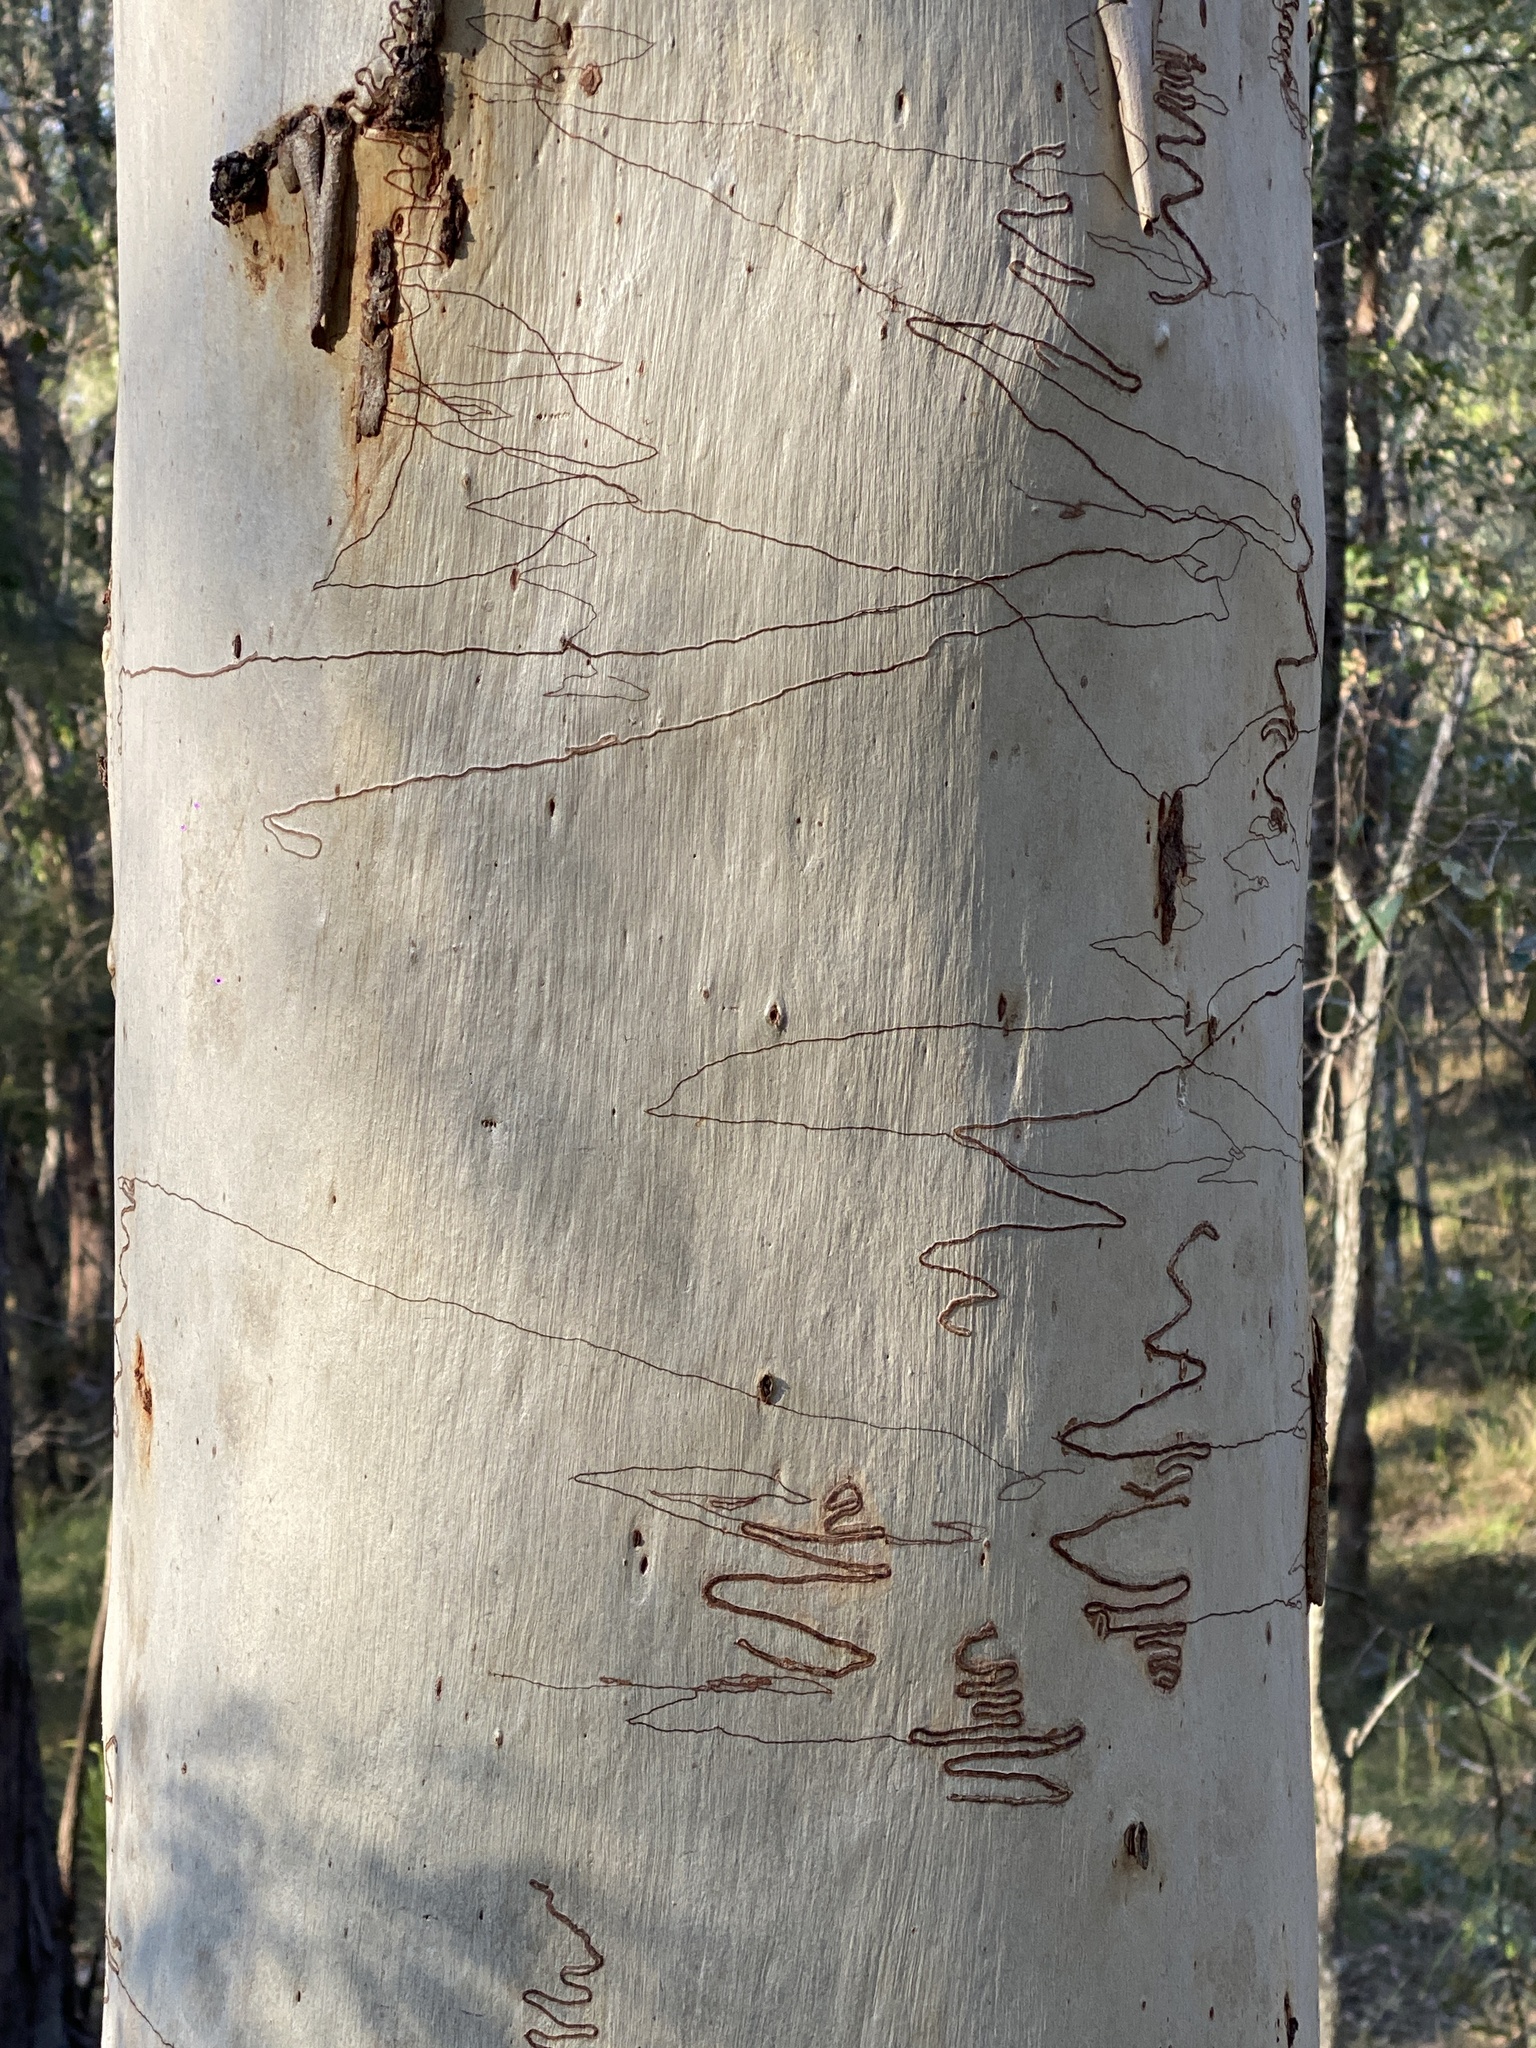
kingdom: Plantae
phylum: Tracheophyta
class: Magnoliopsida
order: Myrtales
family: Myrtaceae
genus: Eucalyptus
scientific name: Eucalyptus racemosa
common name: Scribbly gum
